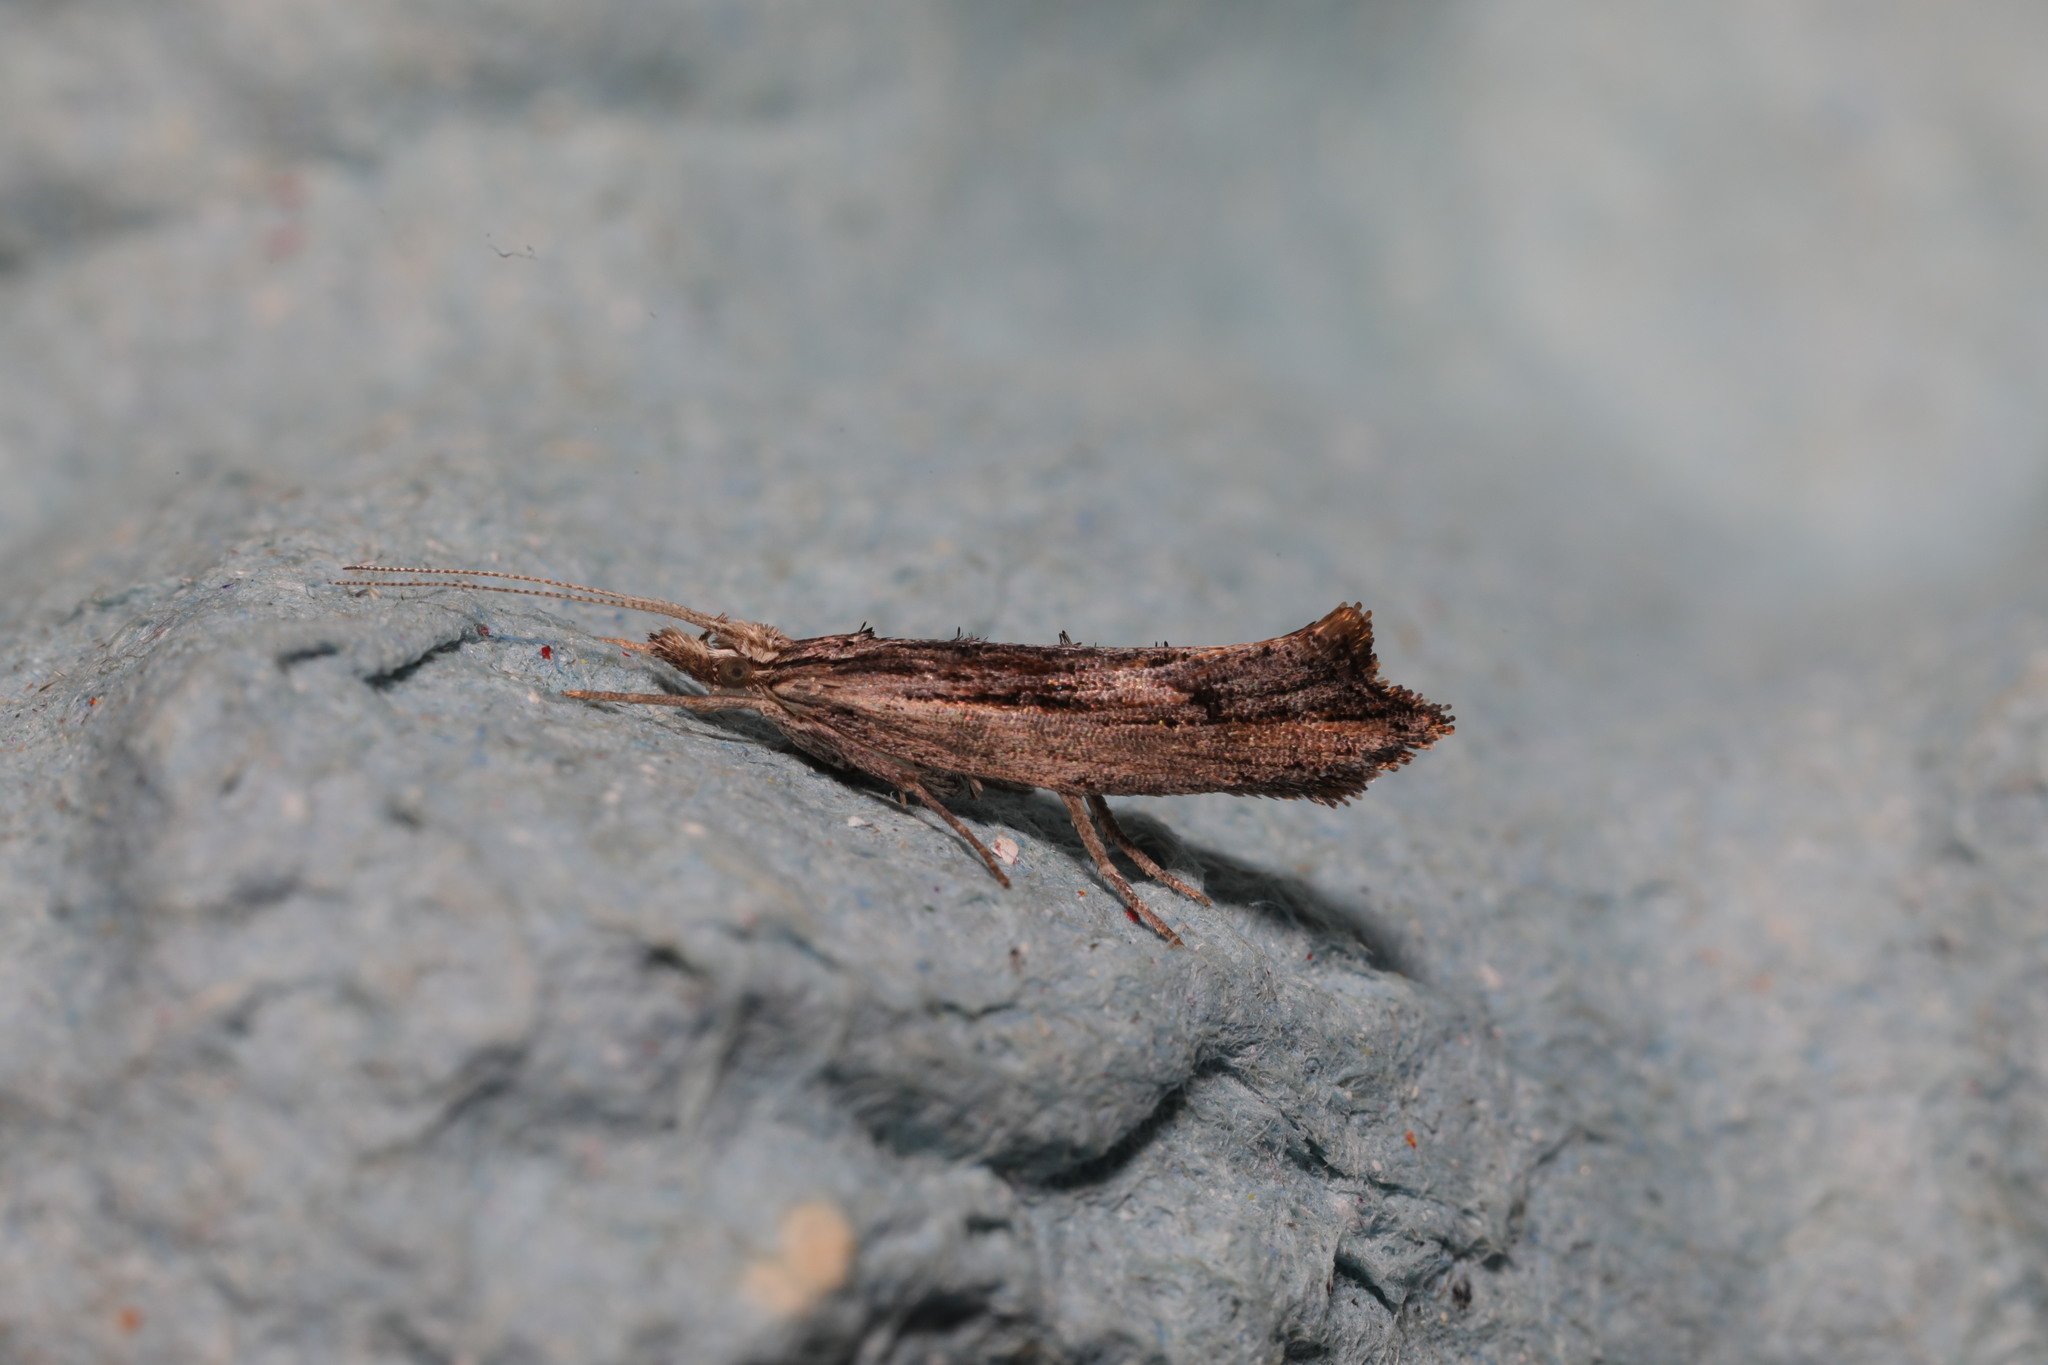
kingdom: Animalia
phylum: Arthropoda
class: Insecta
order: Lepidoptera
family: Ypsolophidae
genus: Ypsolopha
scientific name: Ypsolopha scabrella
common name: Wainscot smudge
